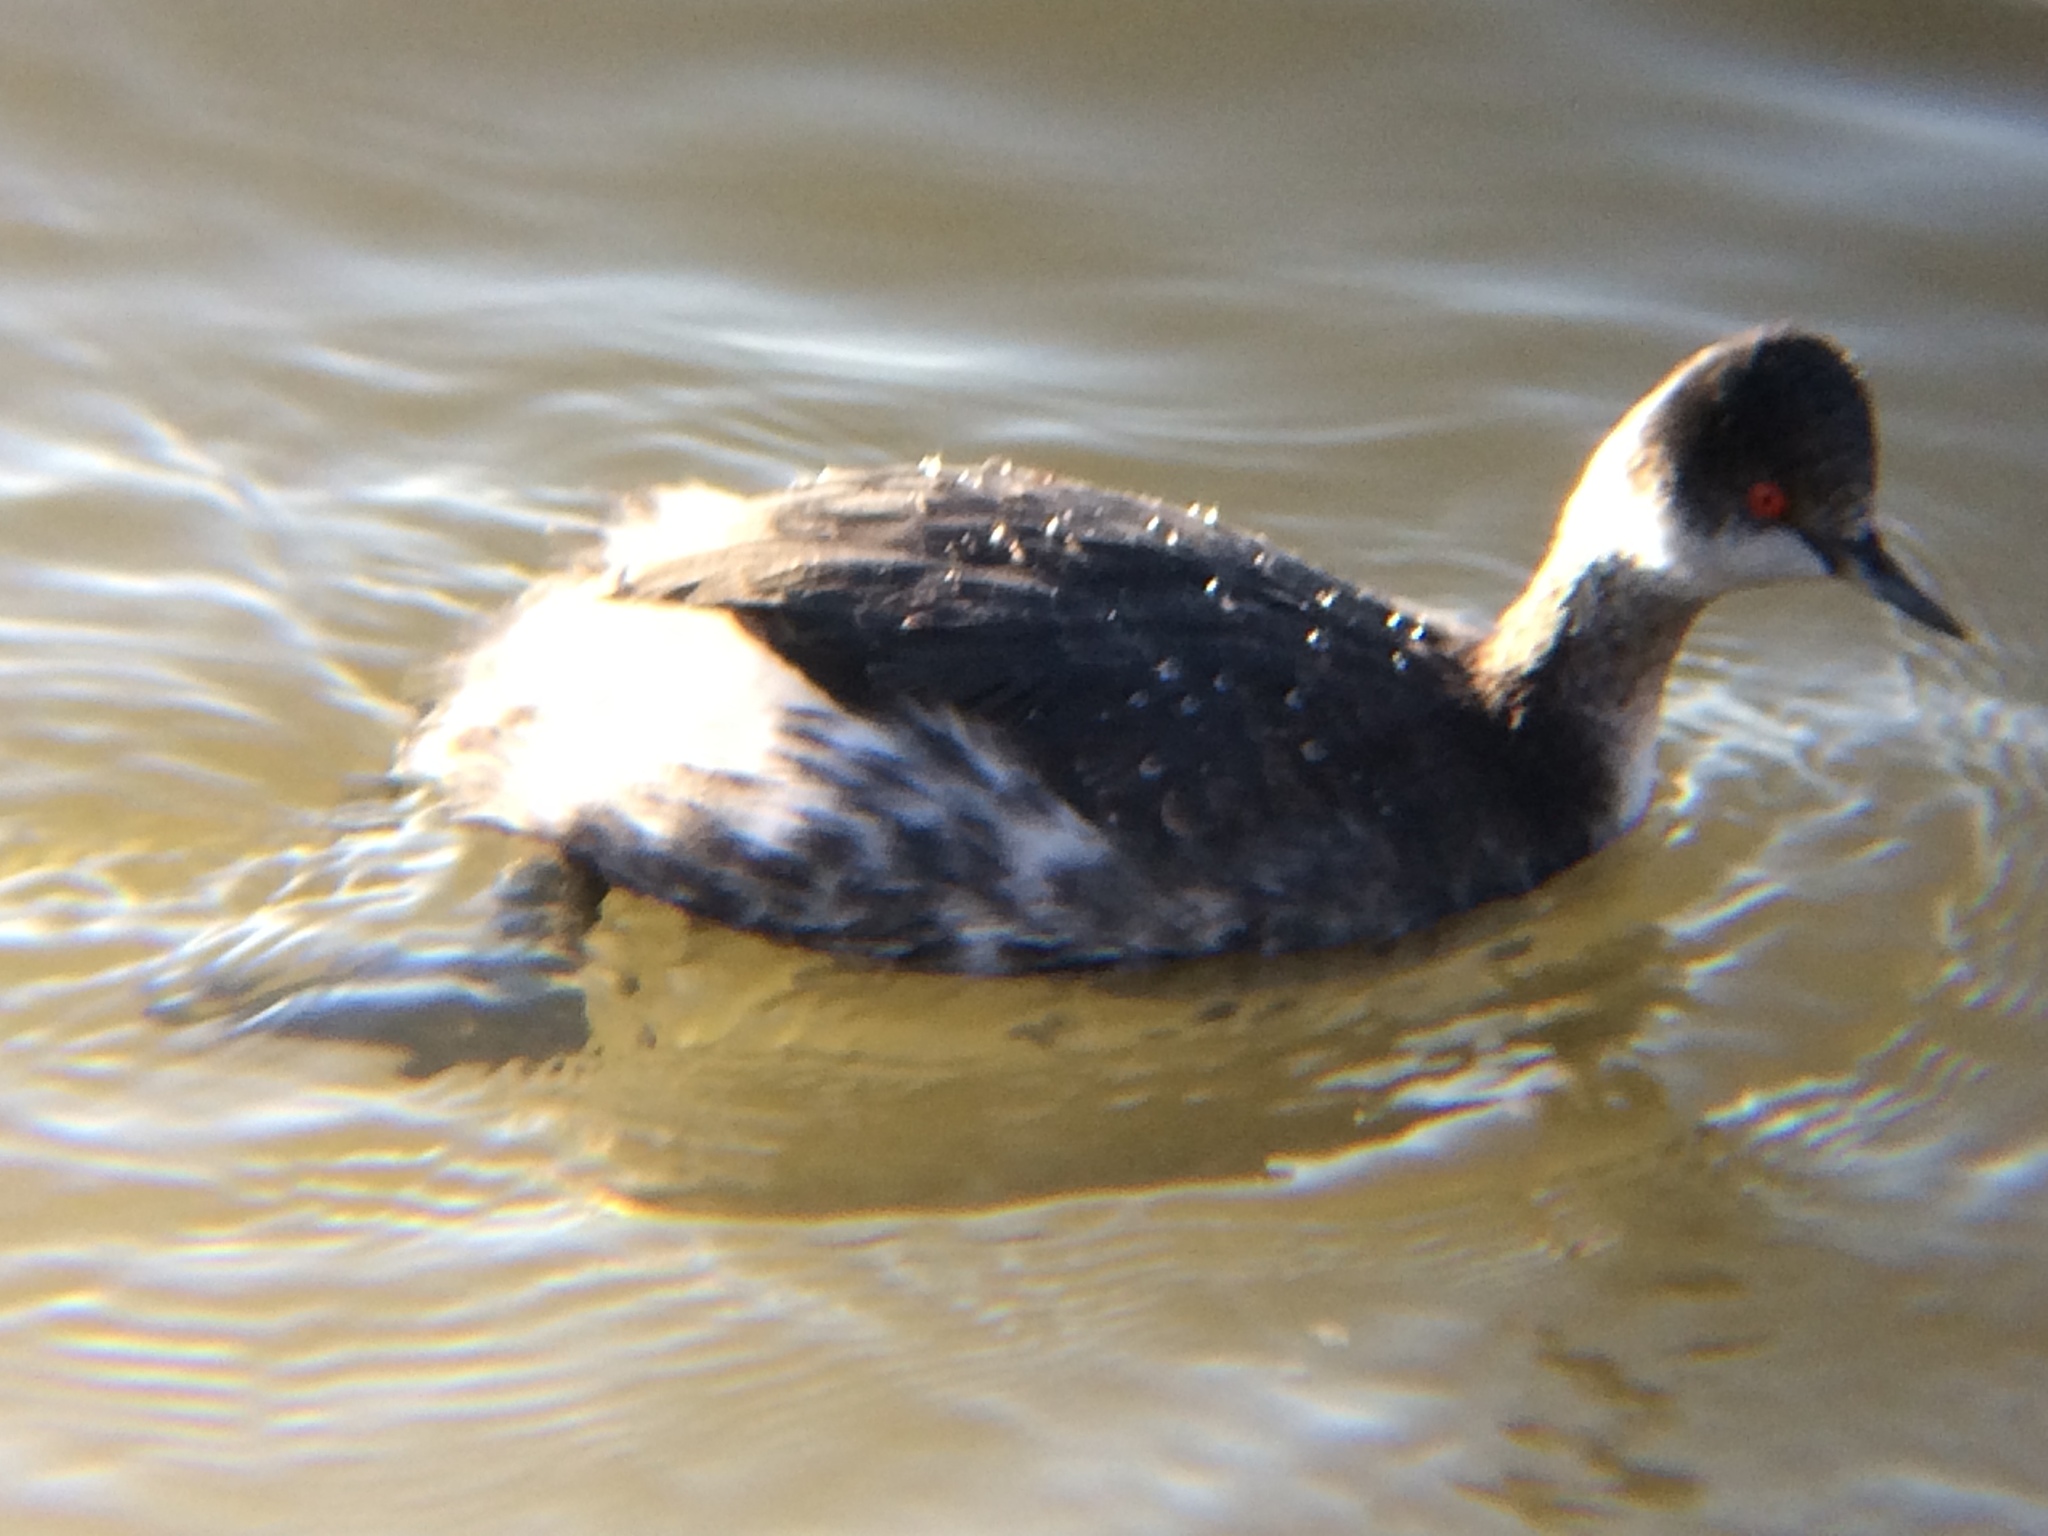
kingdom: Animalia
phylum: Chordata
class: Aves
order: Podicipediformes
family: Podicipedidae
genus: Podiceps
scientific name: Podiceps nigricollis
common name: Black-necked grebe
